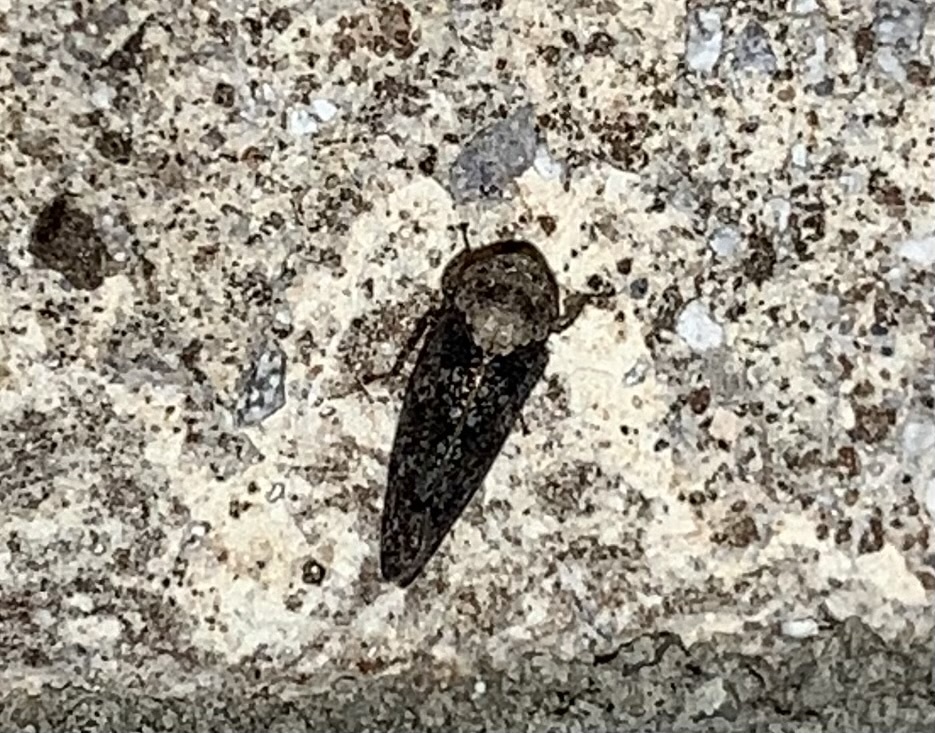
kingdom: Animalia
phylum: Arthropoda
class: Insecta
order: Hemiptera
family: Cicadellidae
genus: Paraphlepsius
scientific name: Paraphlepsius collitus
